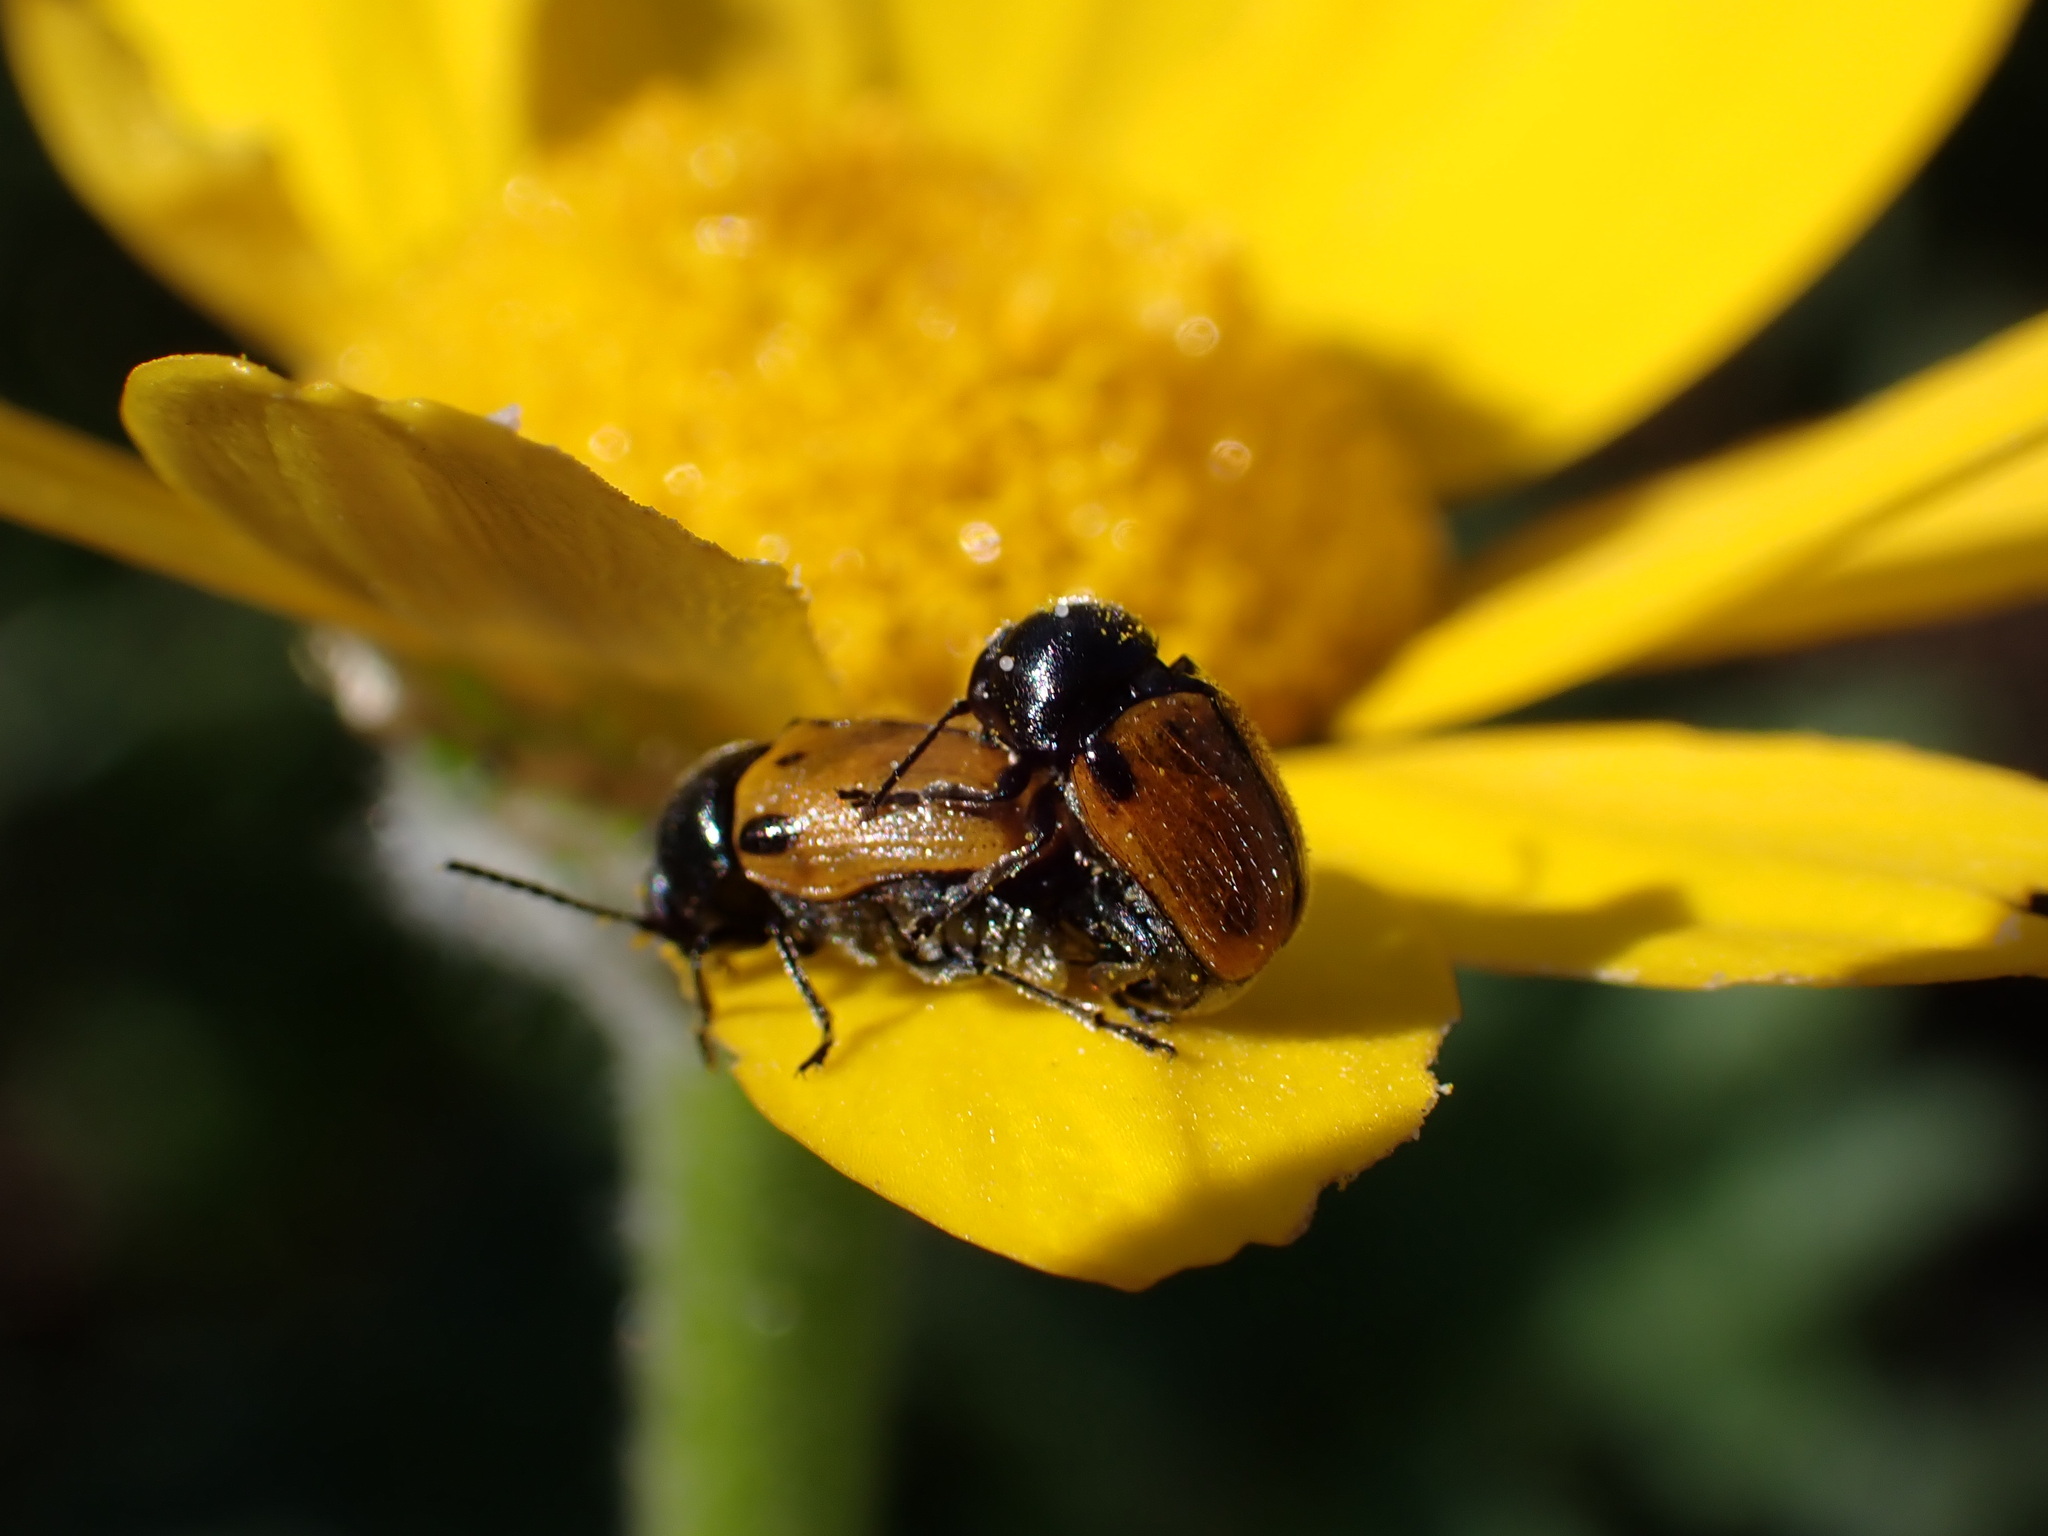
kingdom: Animalia
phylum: Arthropoda
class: Insecta
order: Coleoptera
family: Chrysomelidae
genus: Cryptocephalus
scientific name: Cryptocephalus rugicollis
